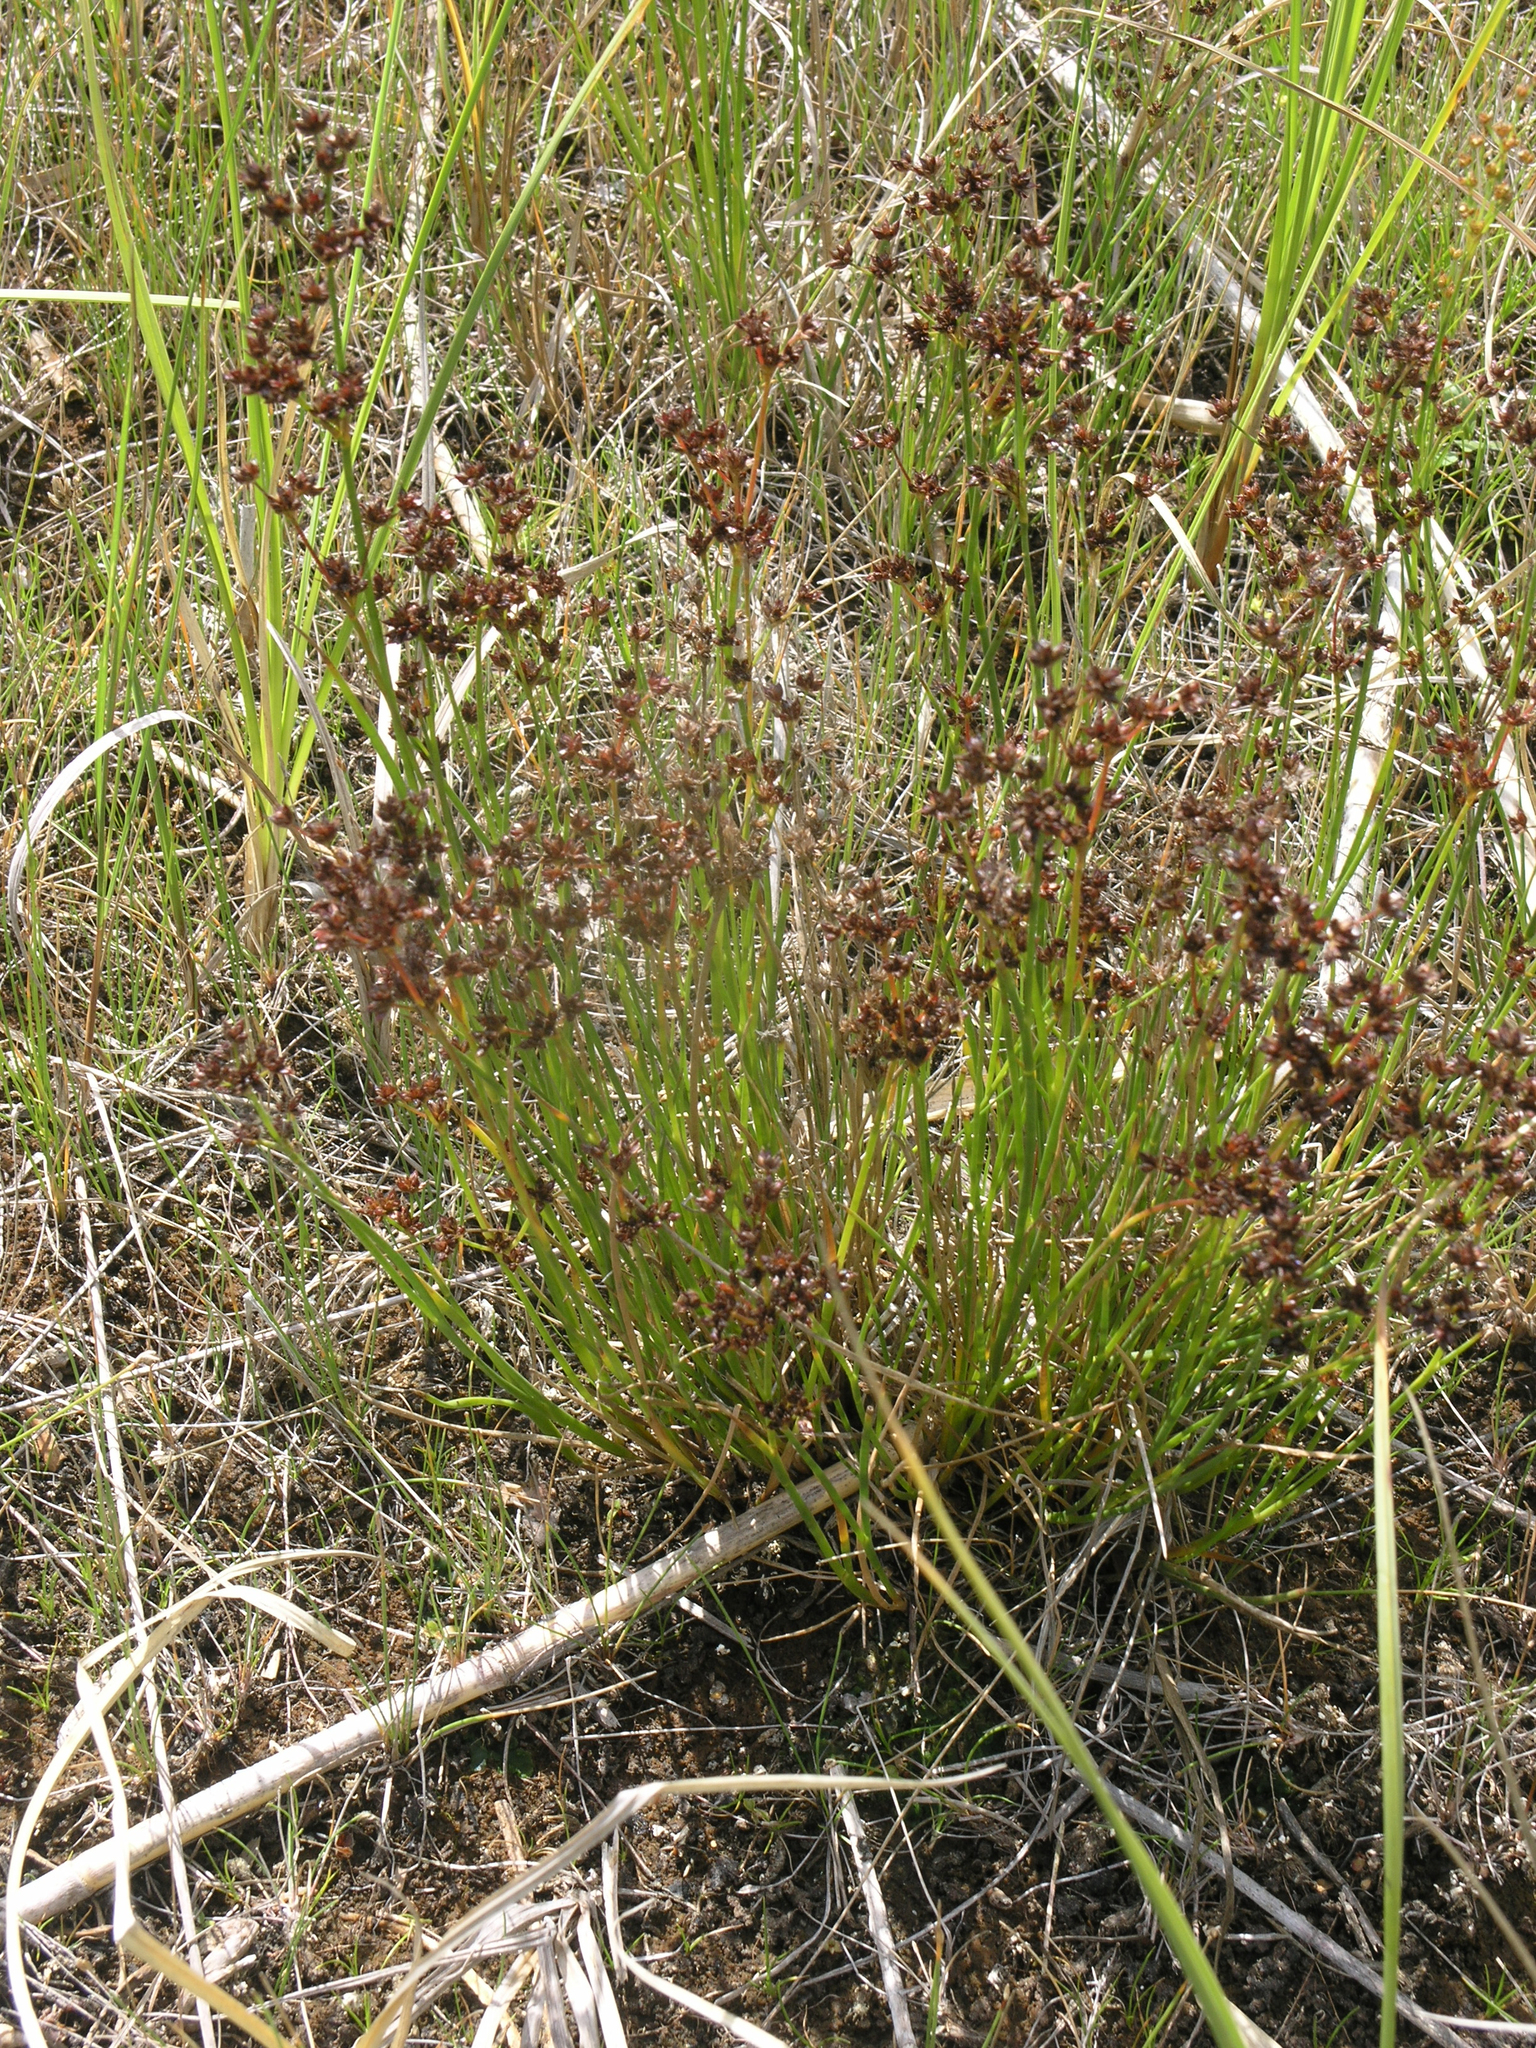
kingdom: Plantae
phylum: Tracheophyta
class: Liliopsida
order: Poales
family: Juncaceae
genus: Juncus
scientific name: Juncus articulatus
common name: Jointed rush
